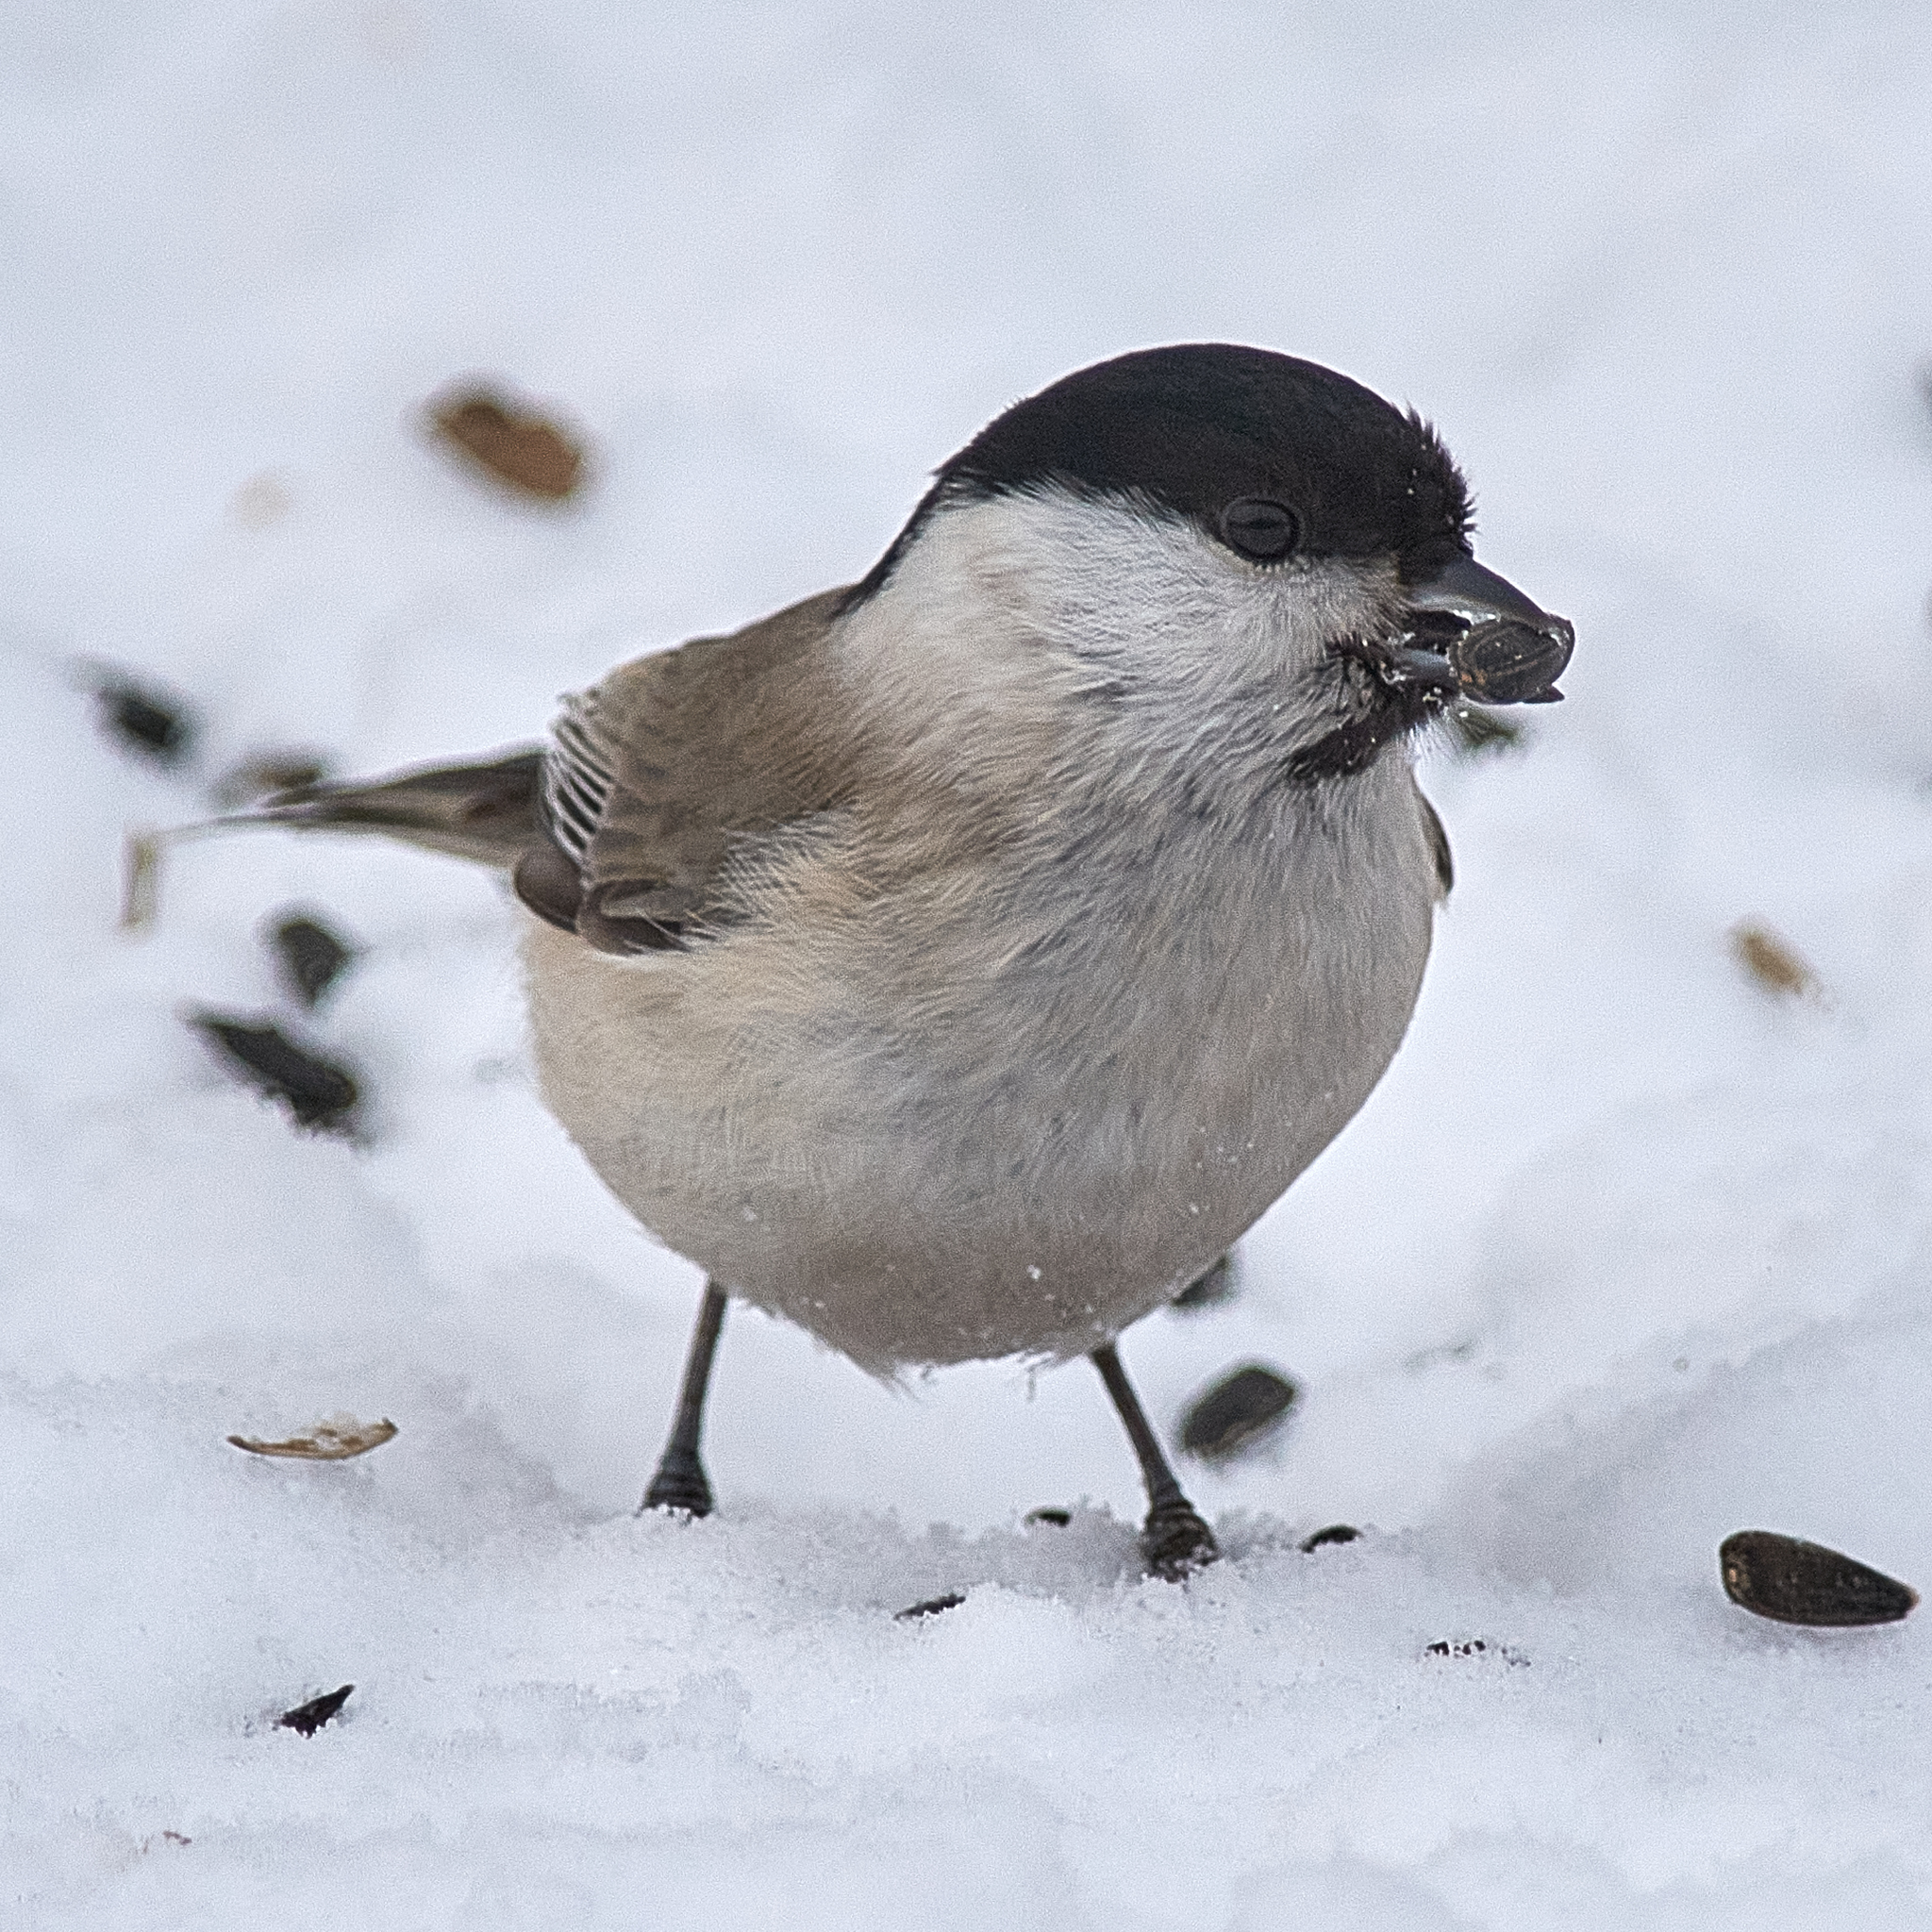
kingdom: Animalia
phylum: Chordata
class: Aves
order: Passeriformes
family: Paridae
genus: Poecile
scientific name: Poecile palustris
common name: Marsh tit
